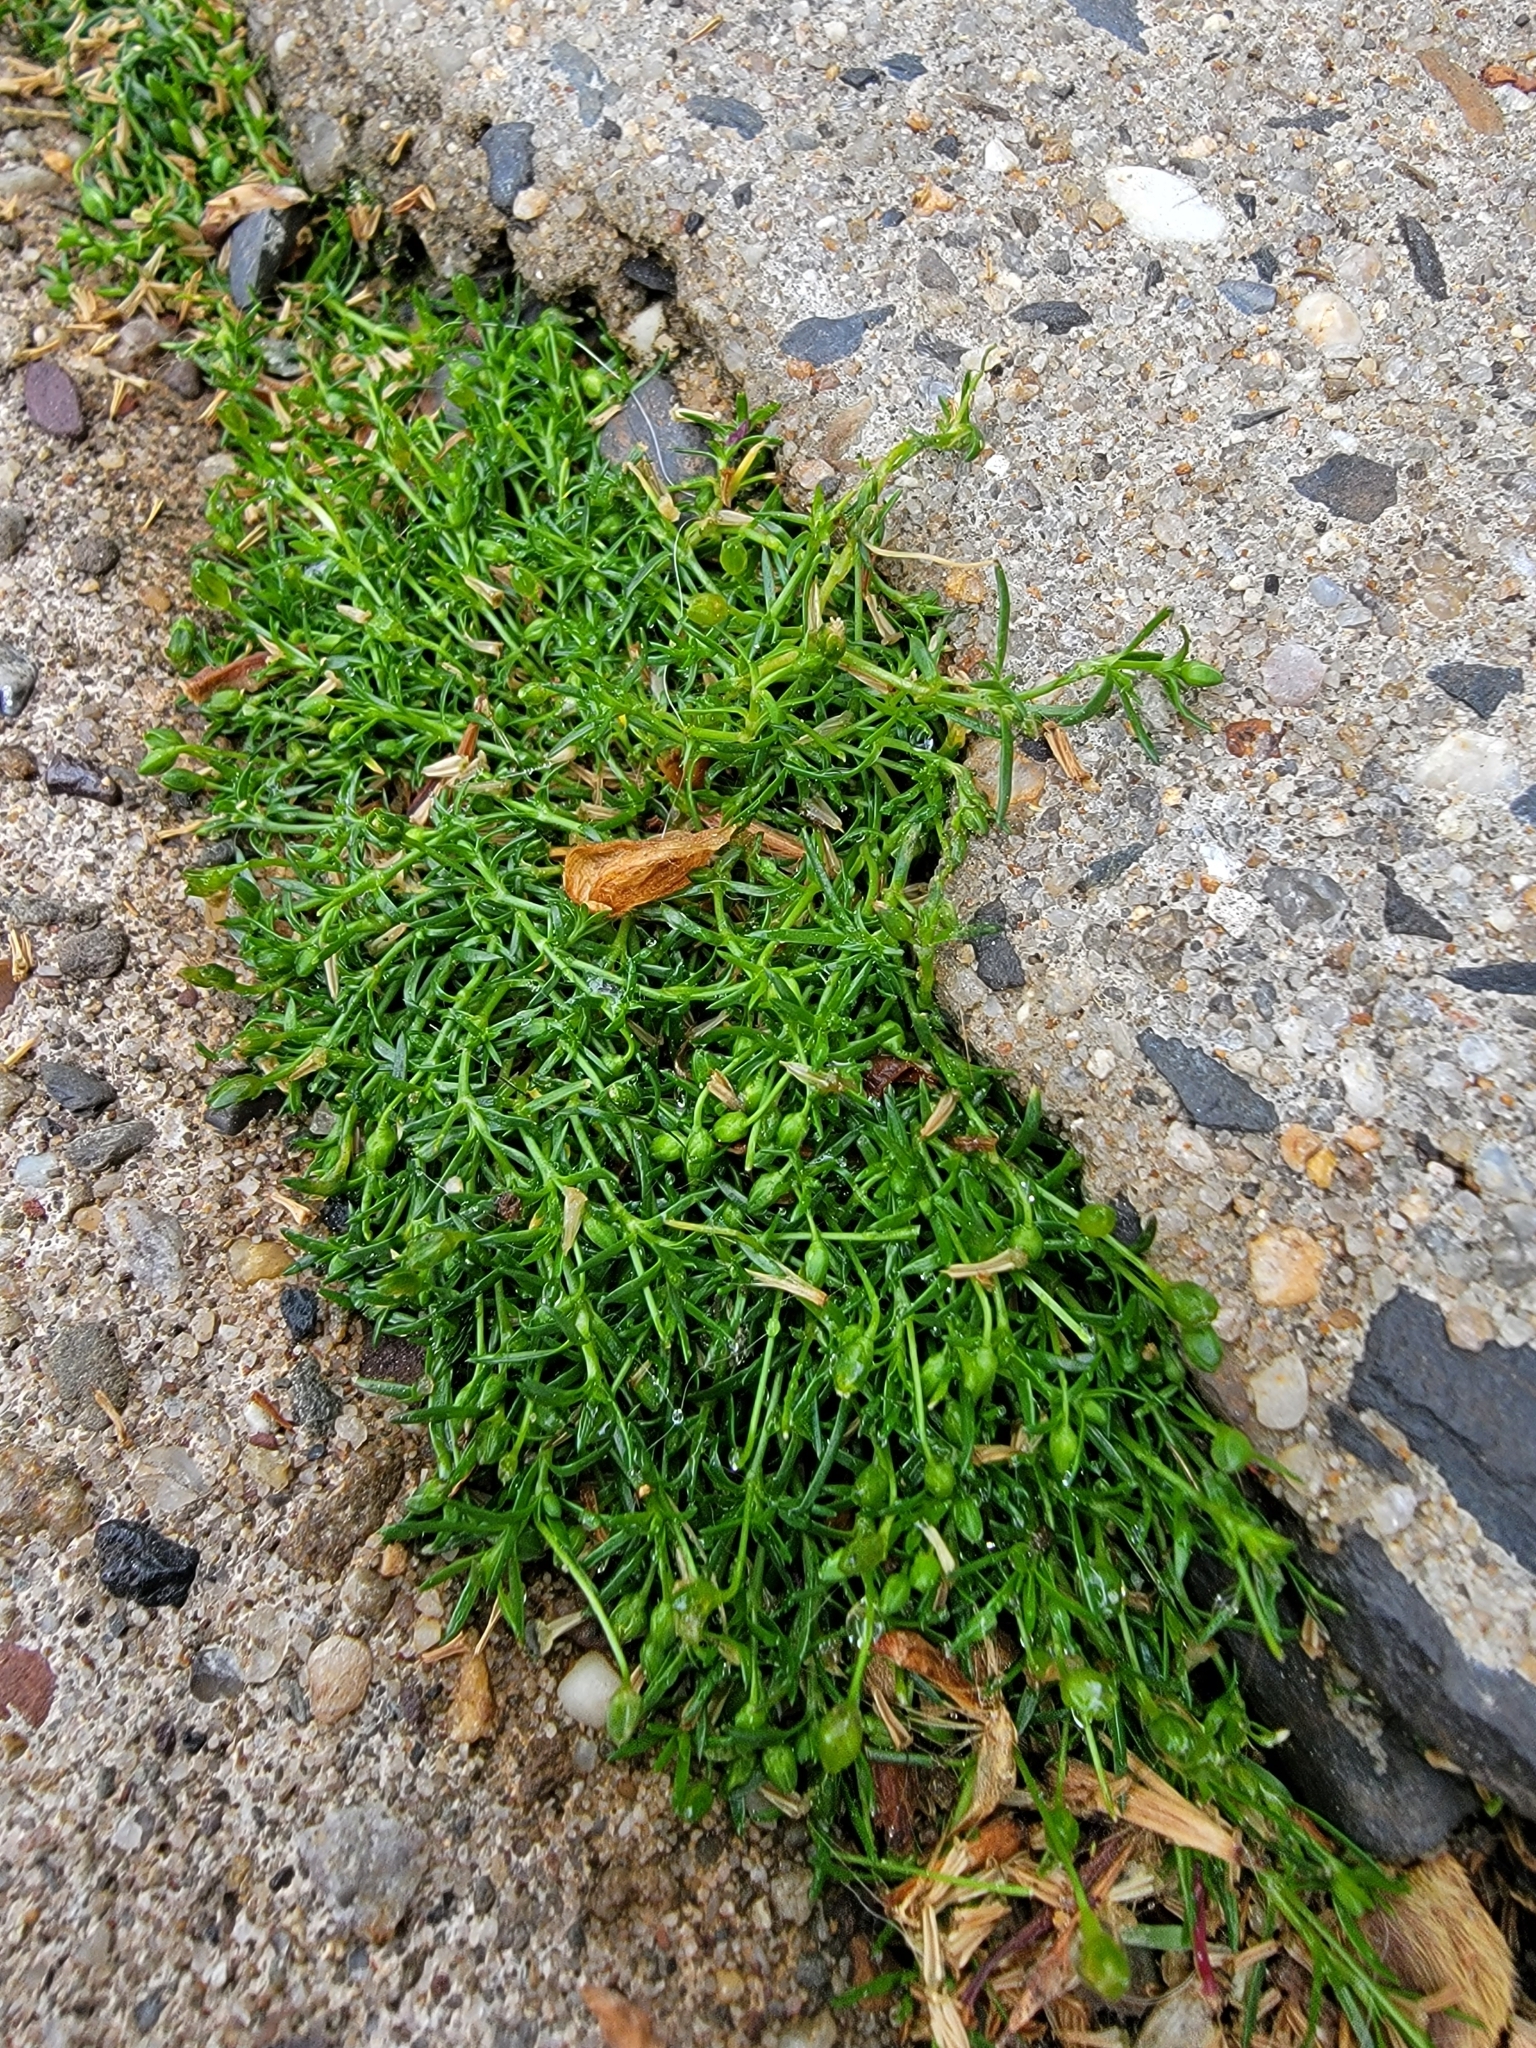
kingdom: Plantae
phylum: Tracheophyta
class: Magnoliopsida
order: Caryophyllales
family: Caryophyllaceae
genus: Sagina
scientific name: Sagina procumbens
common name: Procumbent pearlwort
